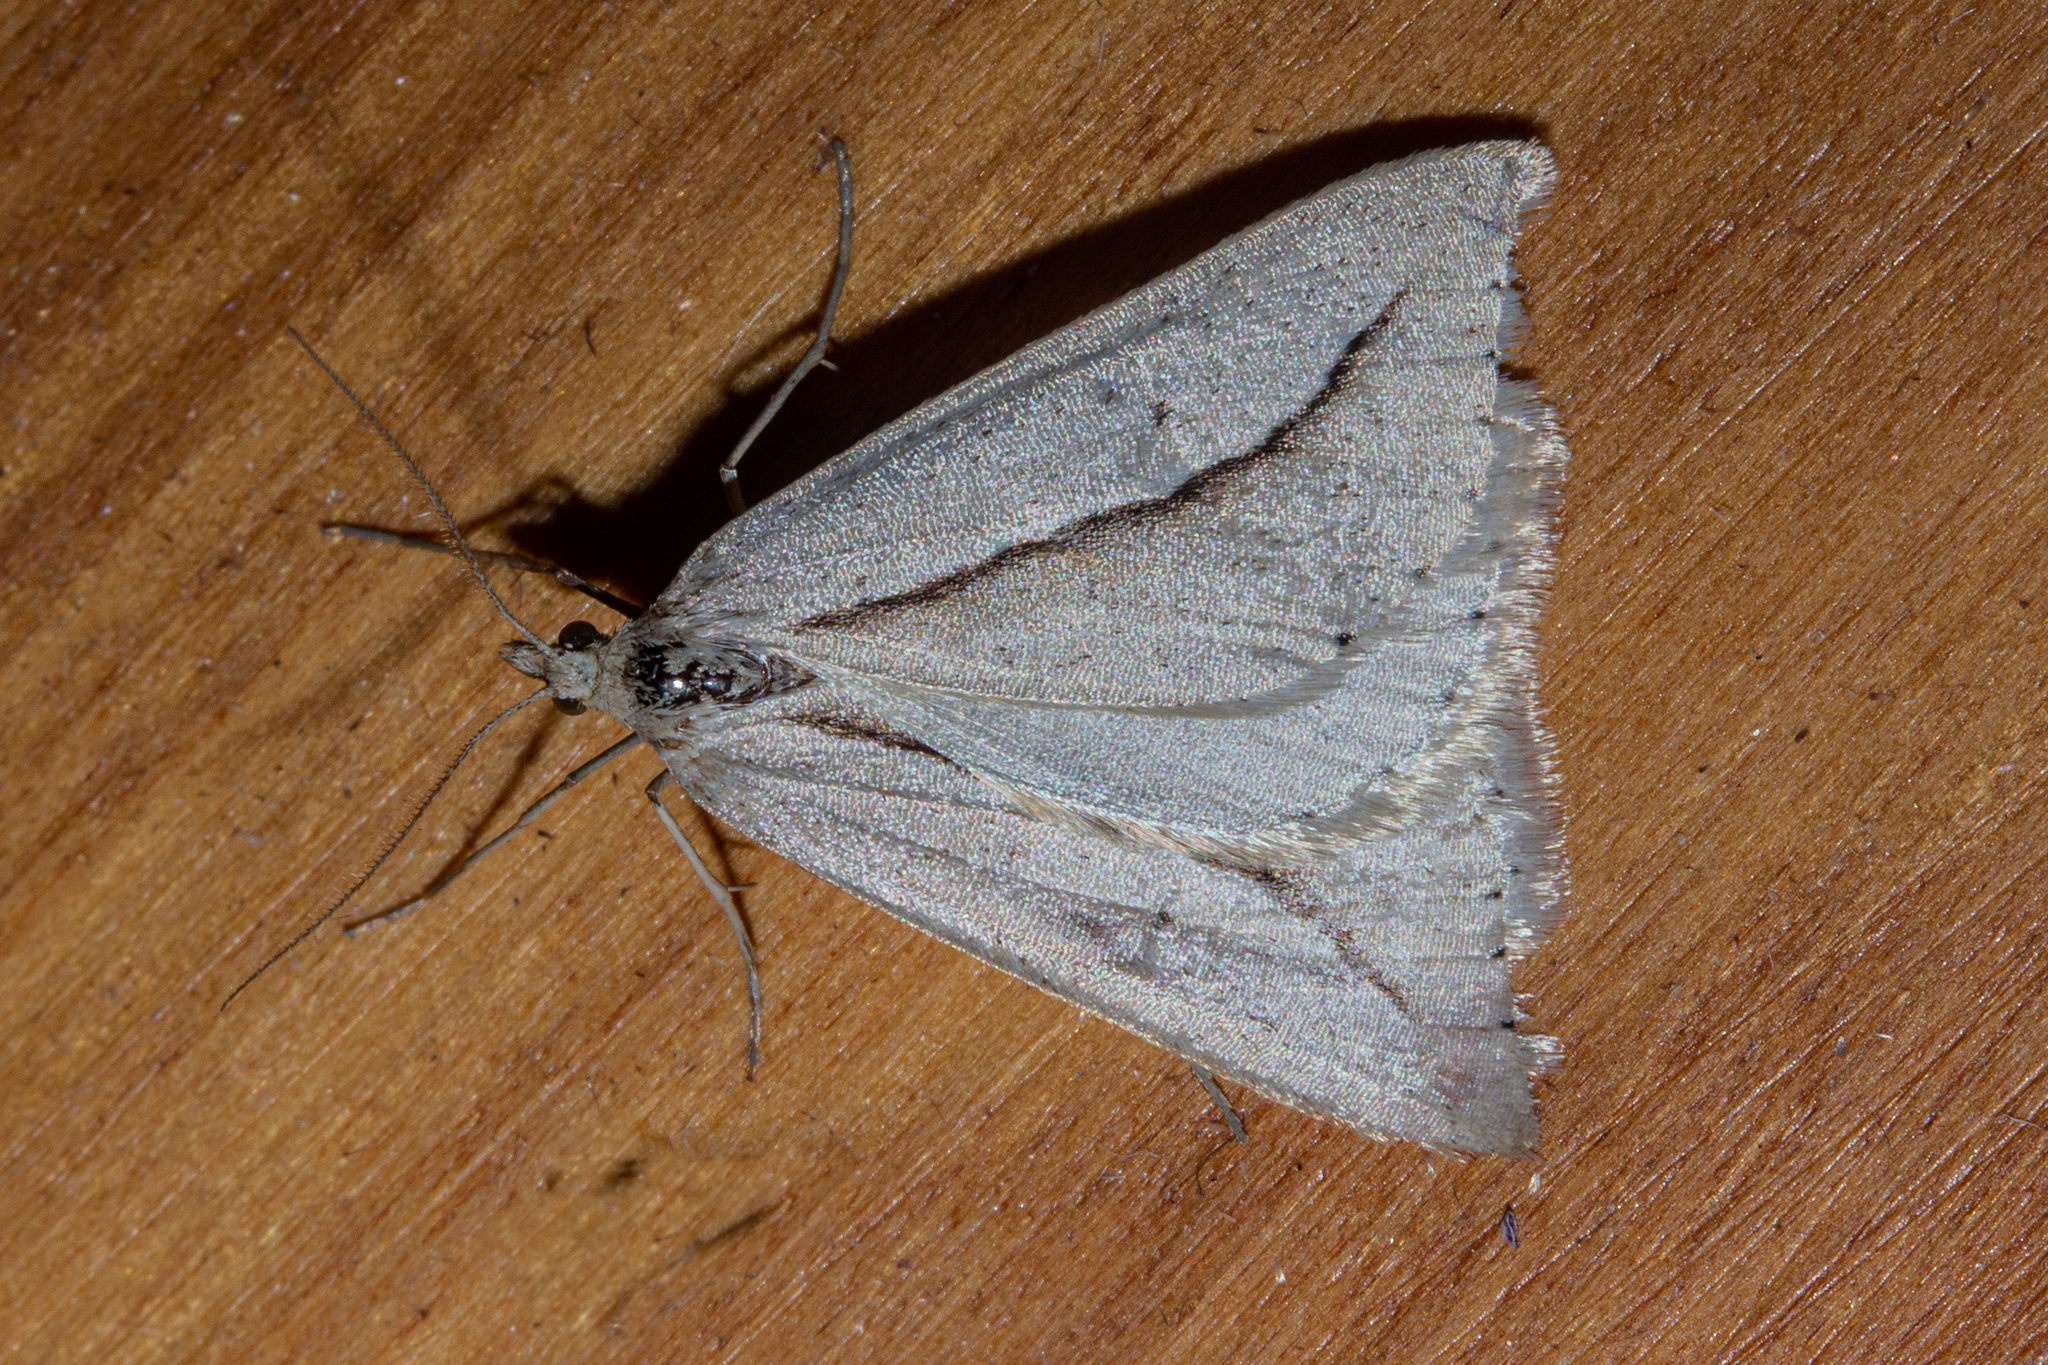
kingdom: Animalia
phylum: Arthropoda
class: Insecta
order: Lepidoptera
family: Geometridae
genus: Theoxena
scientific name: Theoxena scissaria
